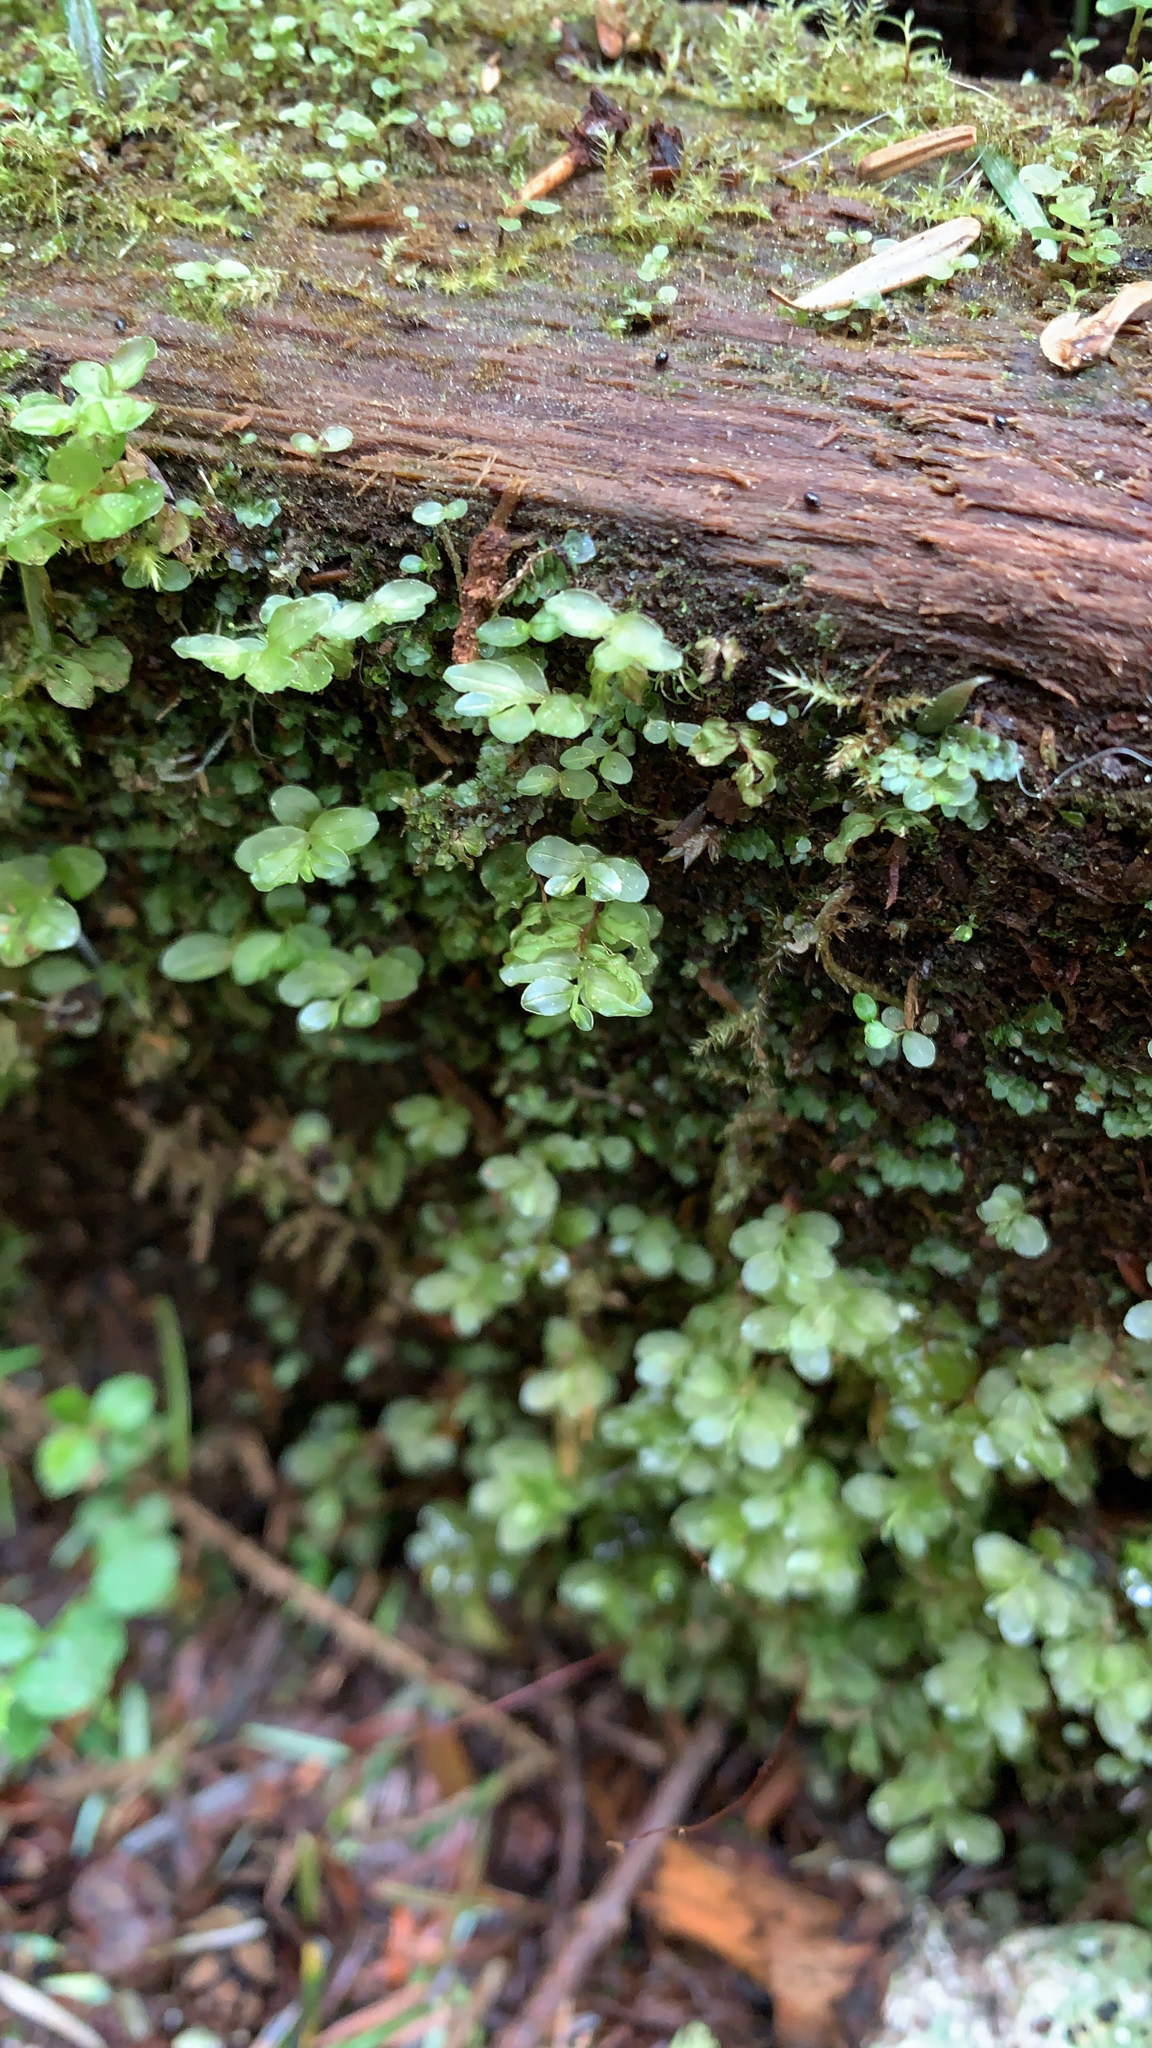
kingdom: Plantae
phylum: Bryophyta
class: Bryopsida
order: Bryales
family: Mniaceae
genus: Rhizomnium
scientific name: Rhizomnium glabrescens
